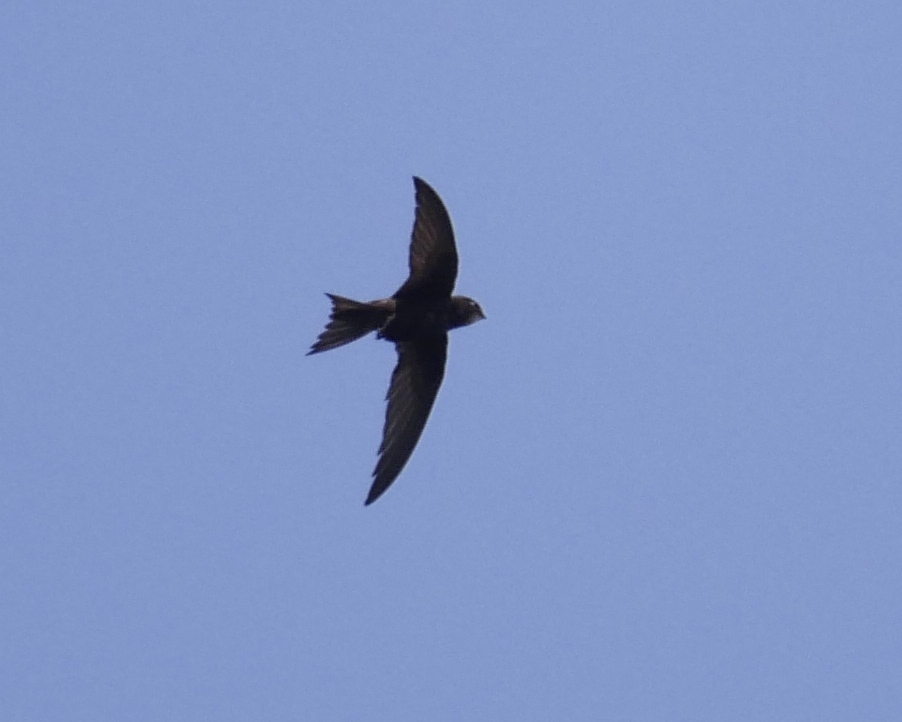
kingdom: Animalia
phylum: Chordata
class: Aves
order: Apodiformes
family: Apodidae
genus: Apus
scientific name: Apus apus
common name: Common swift
